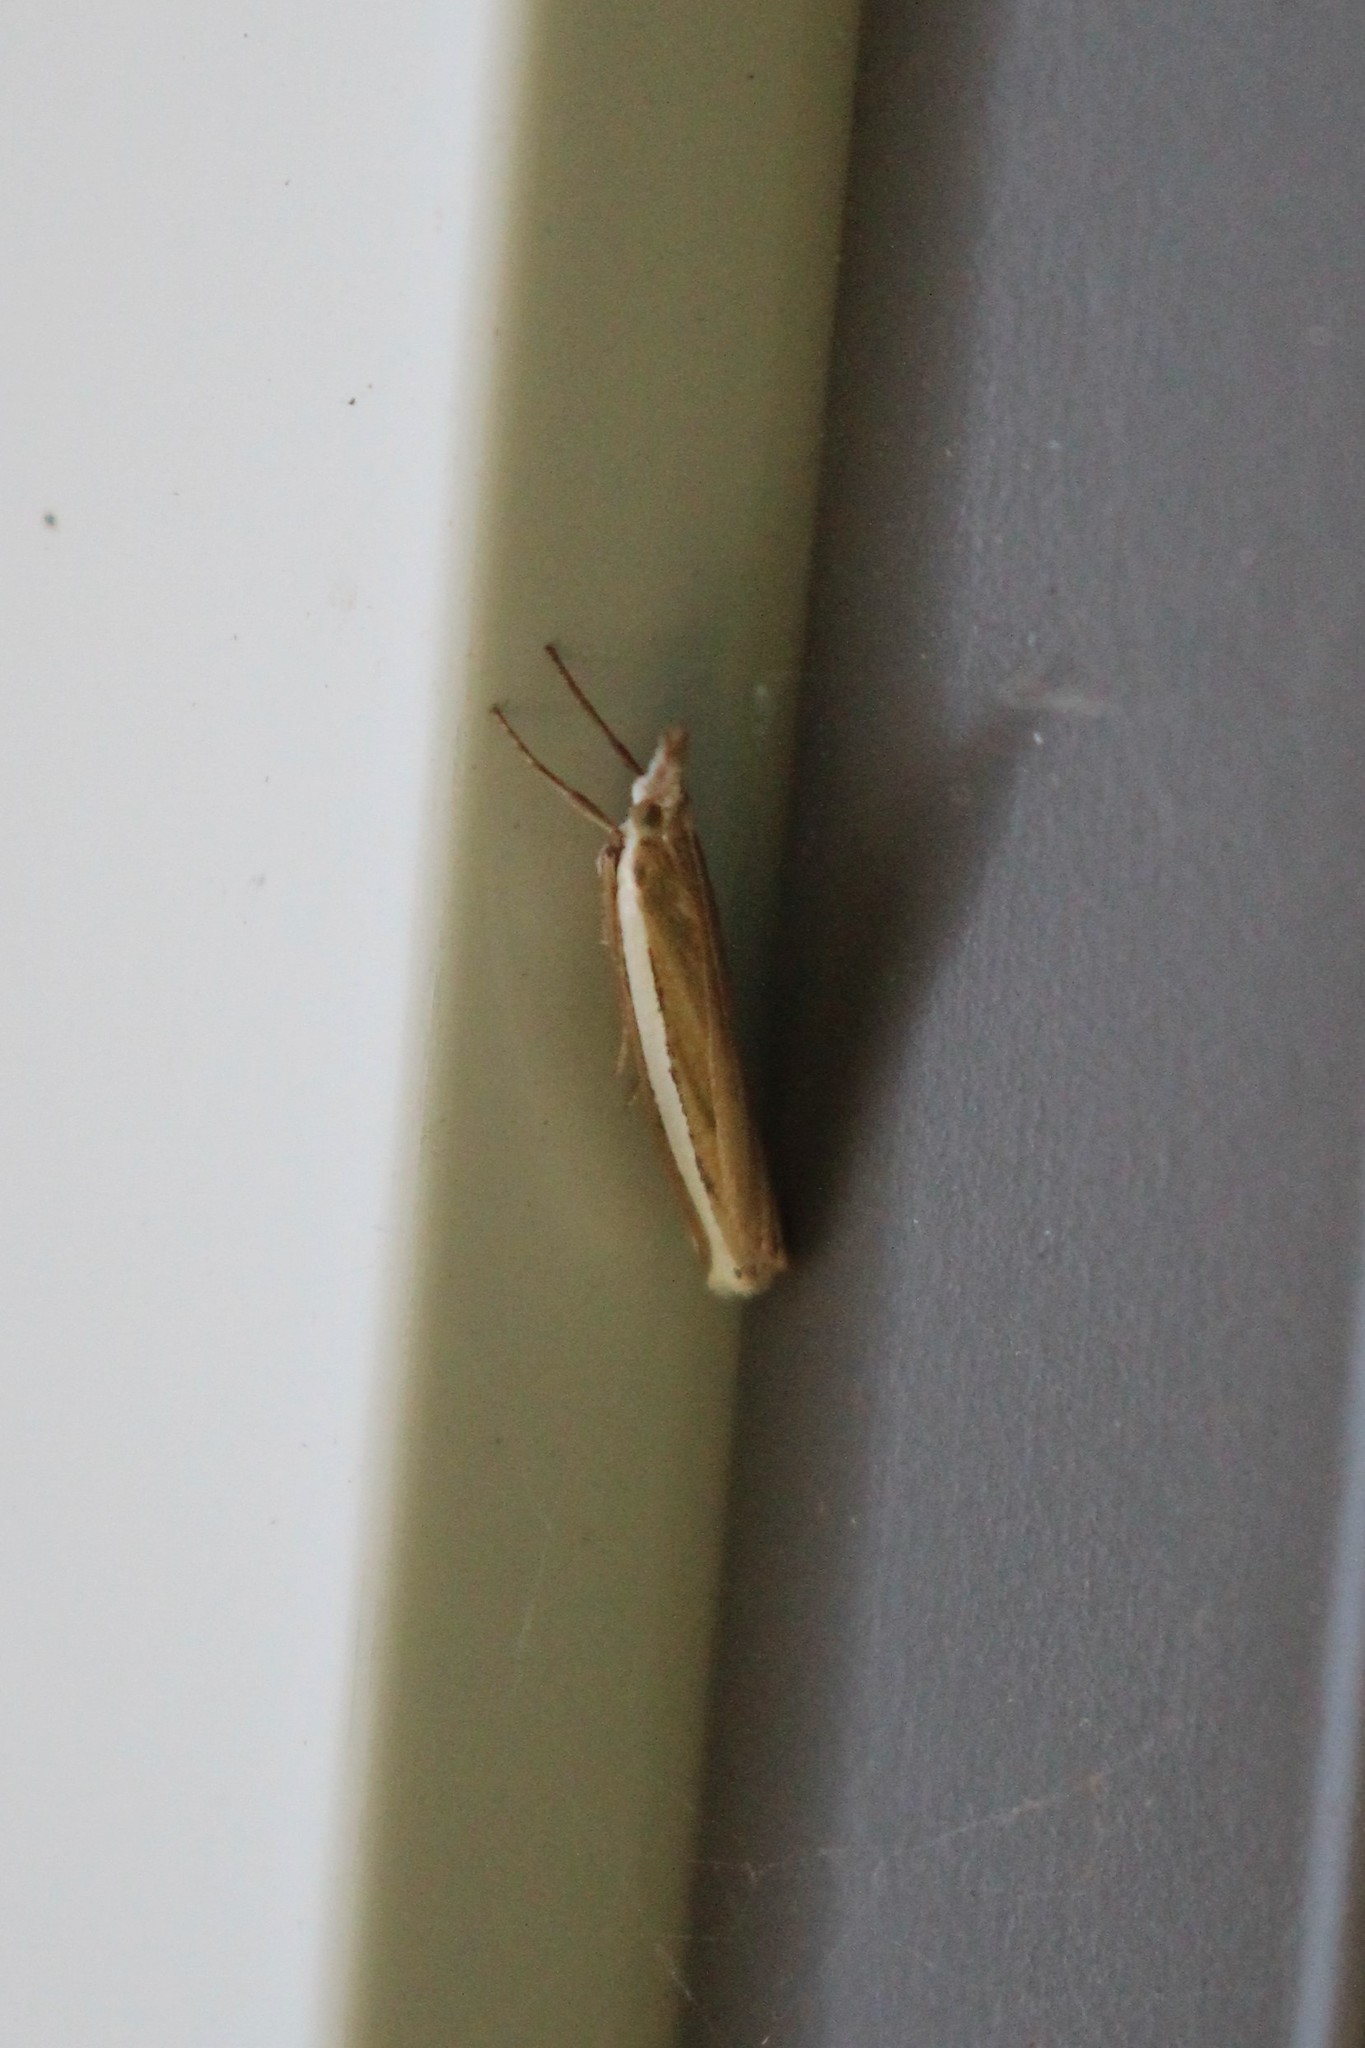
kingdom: Animalia
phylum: Arthropoda
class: Insecta
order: Lepidoptera
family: Crambidae
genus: Crambus
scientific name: Crambus unistriatellus
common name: Wide-stripe grass-veneer moth
